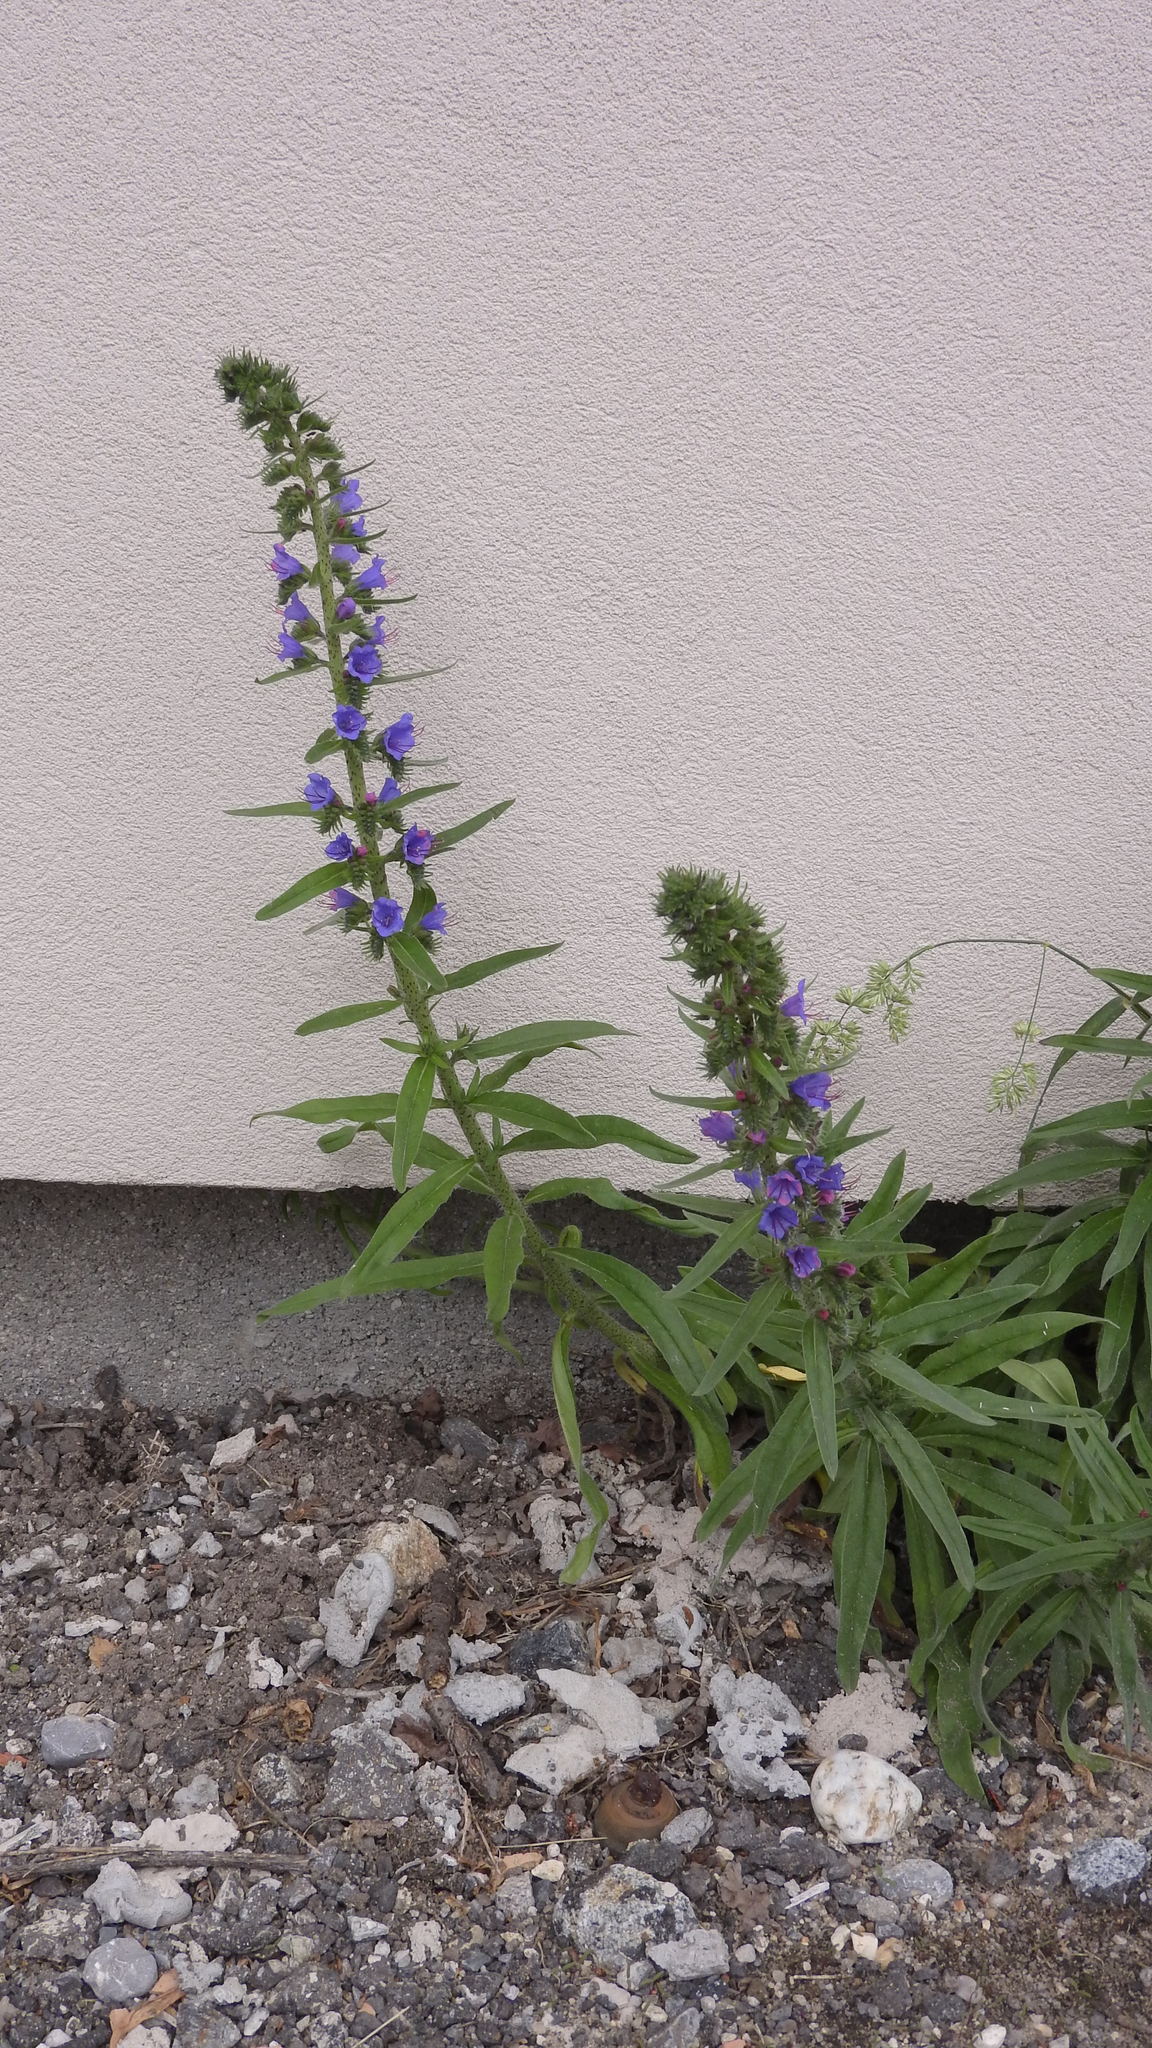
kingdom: Plantae
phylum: Tracheophyta
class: Magnoliopsida
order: Boraginales
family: Boraginaceae
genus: Echium
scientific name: Echium vulgare
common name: Common viper's bugloss
